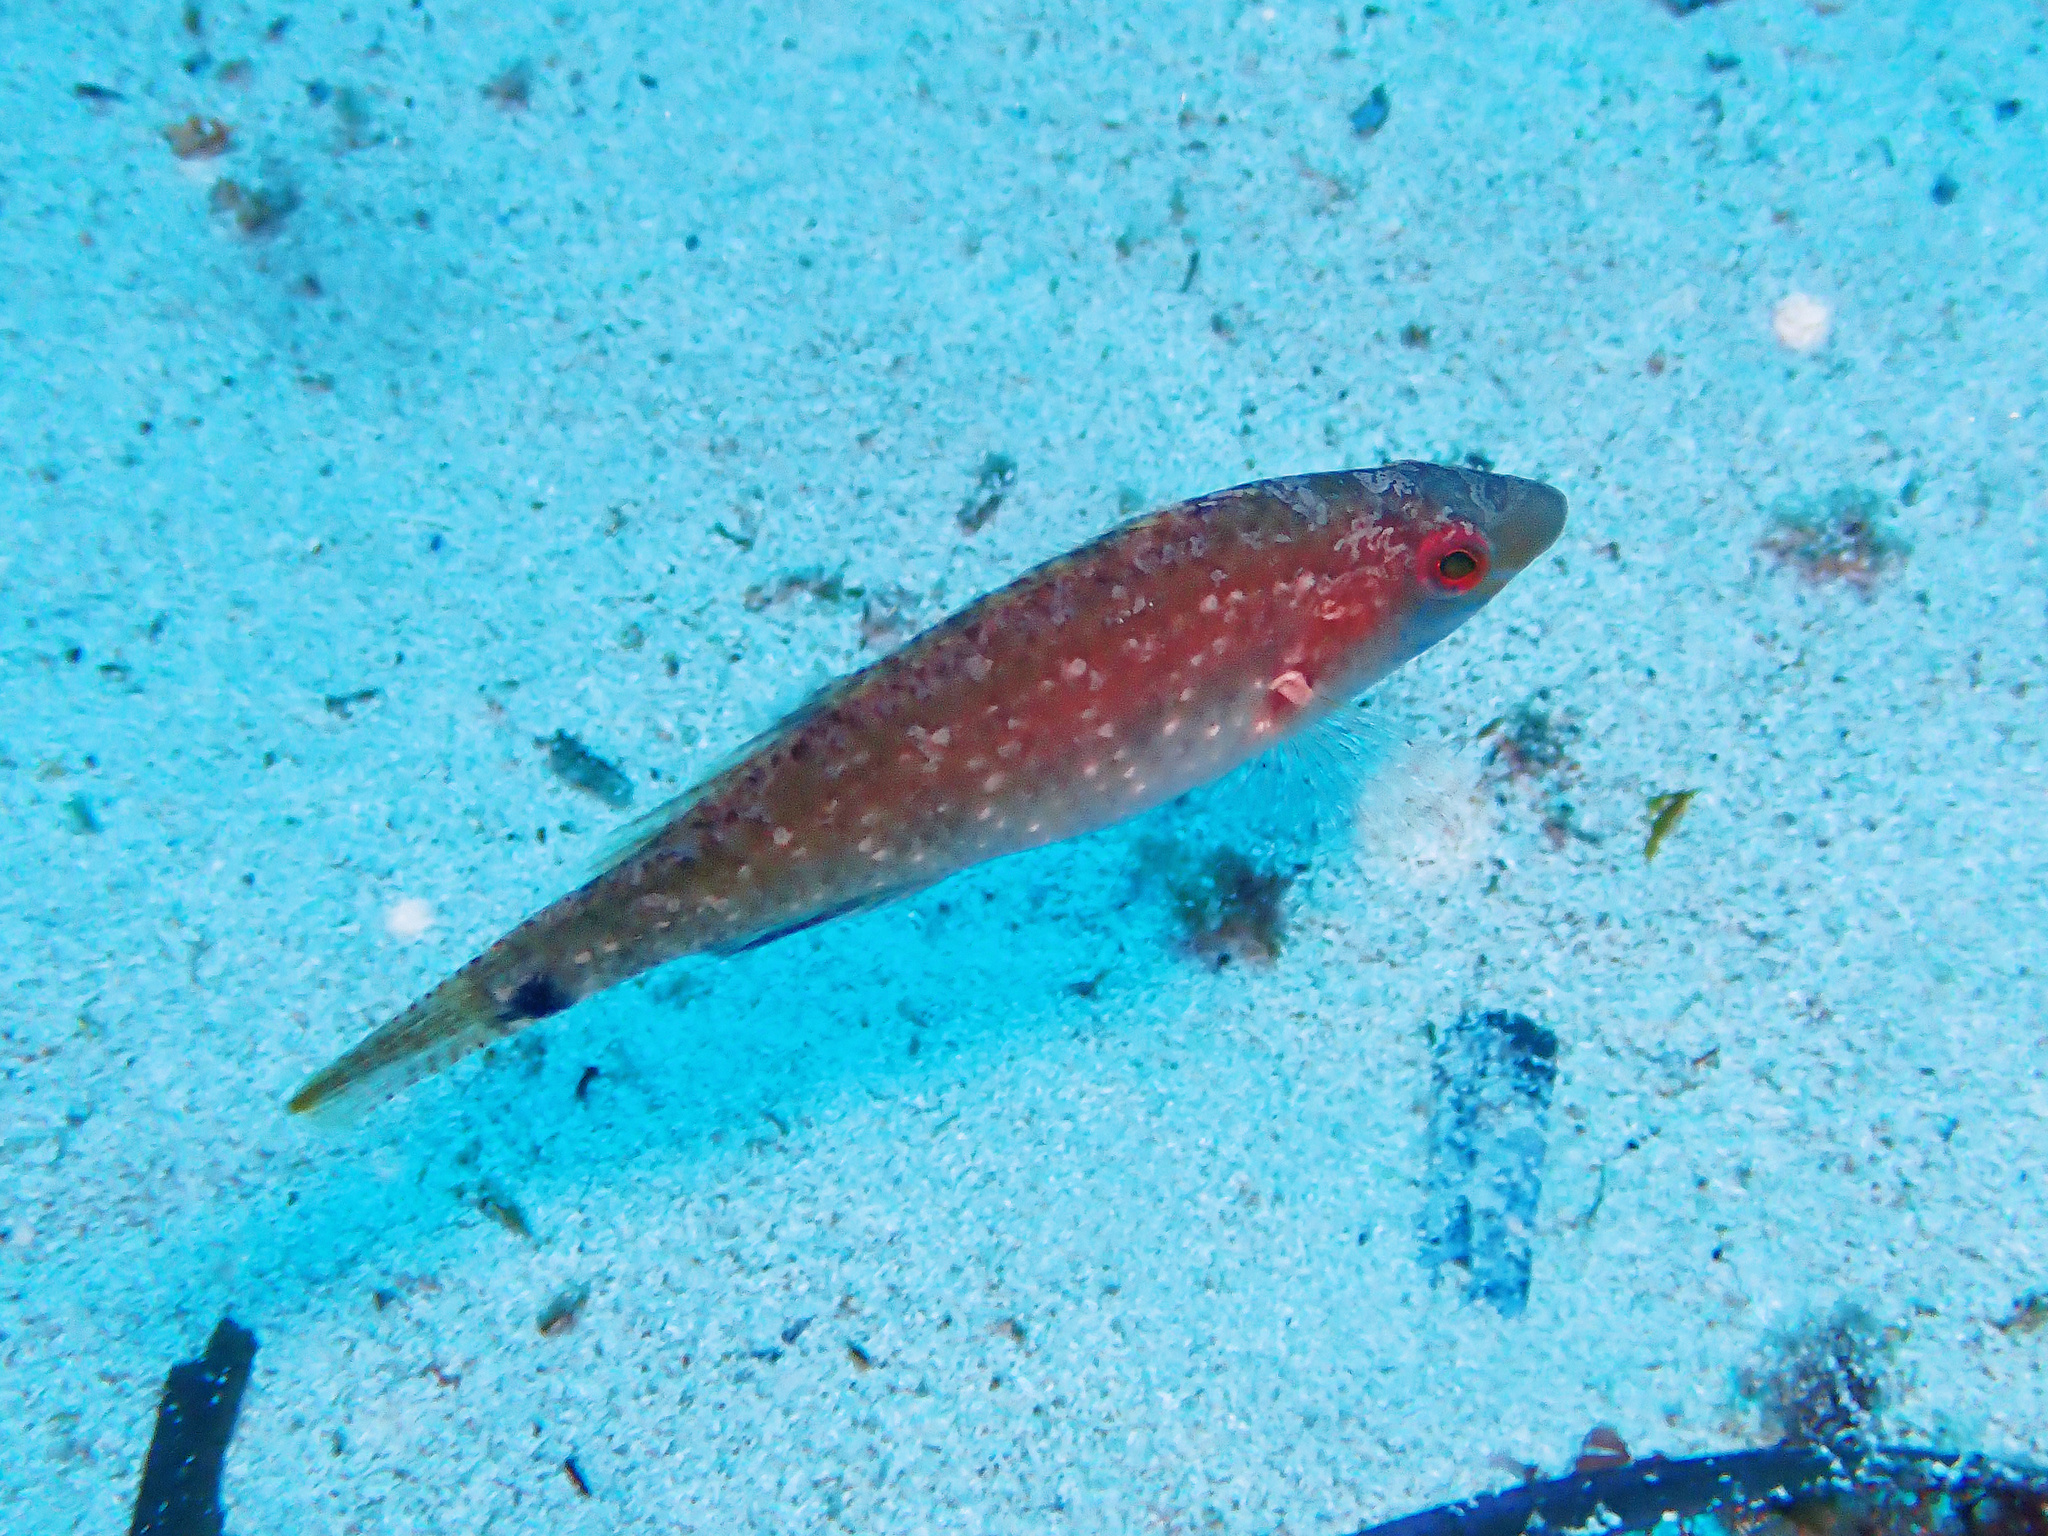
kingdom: Animalia
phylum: Chordata
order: Perciformes
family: Labridae
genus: Symphodus
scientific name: Symphodus cinereus
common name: Grey wrasse
